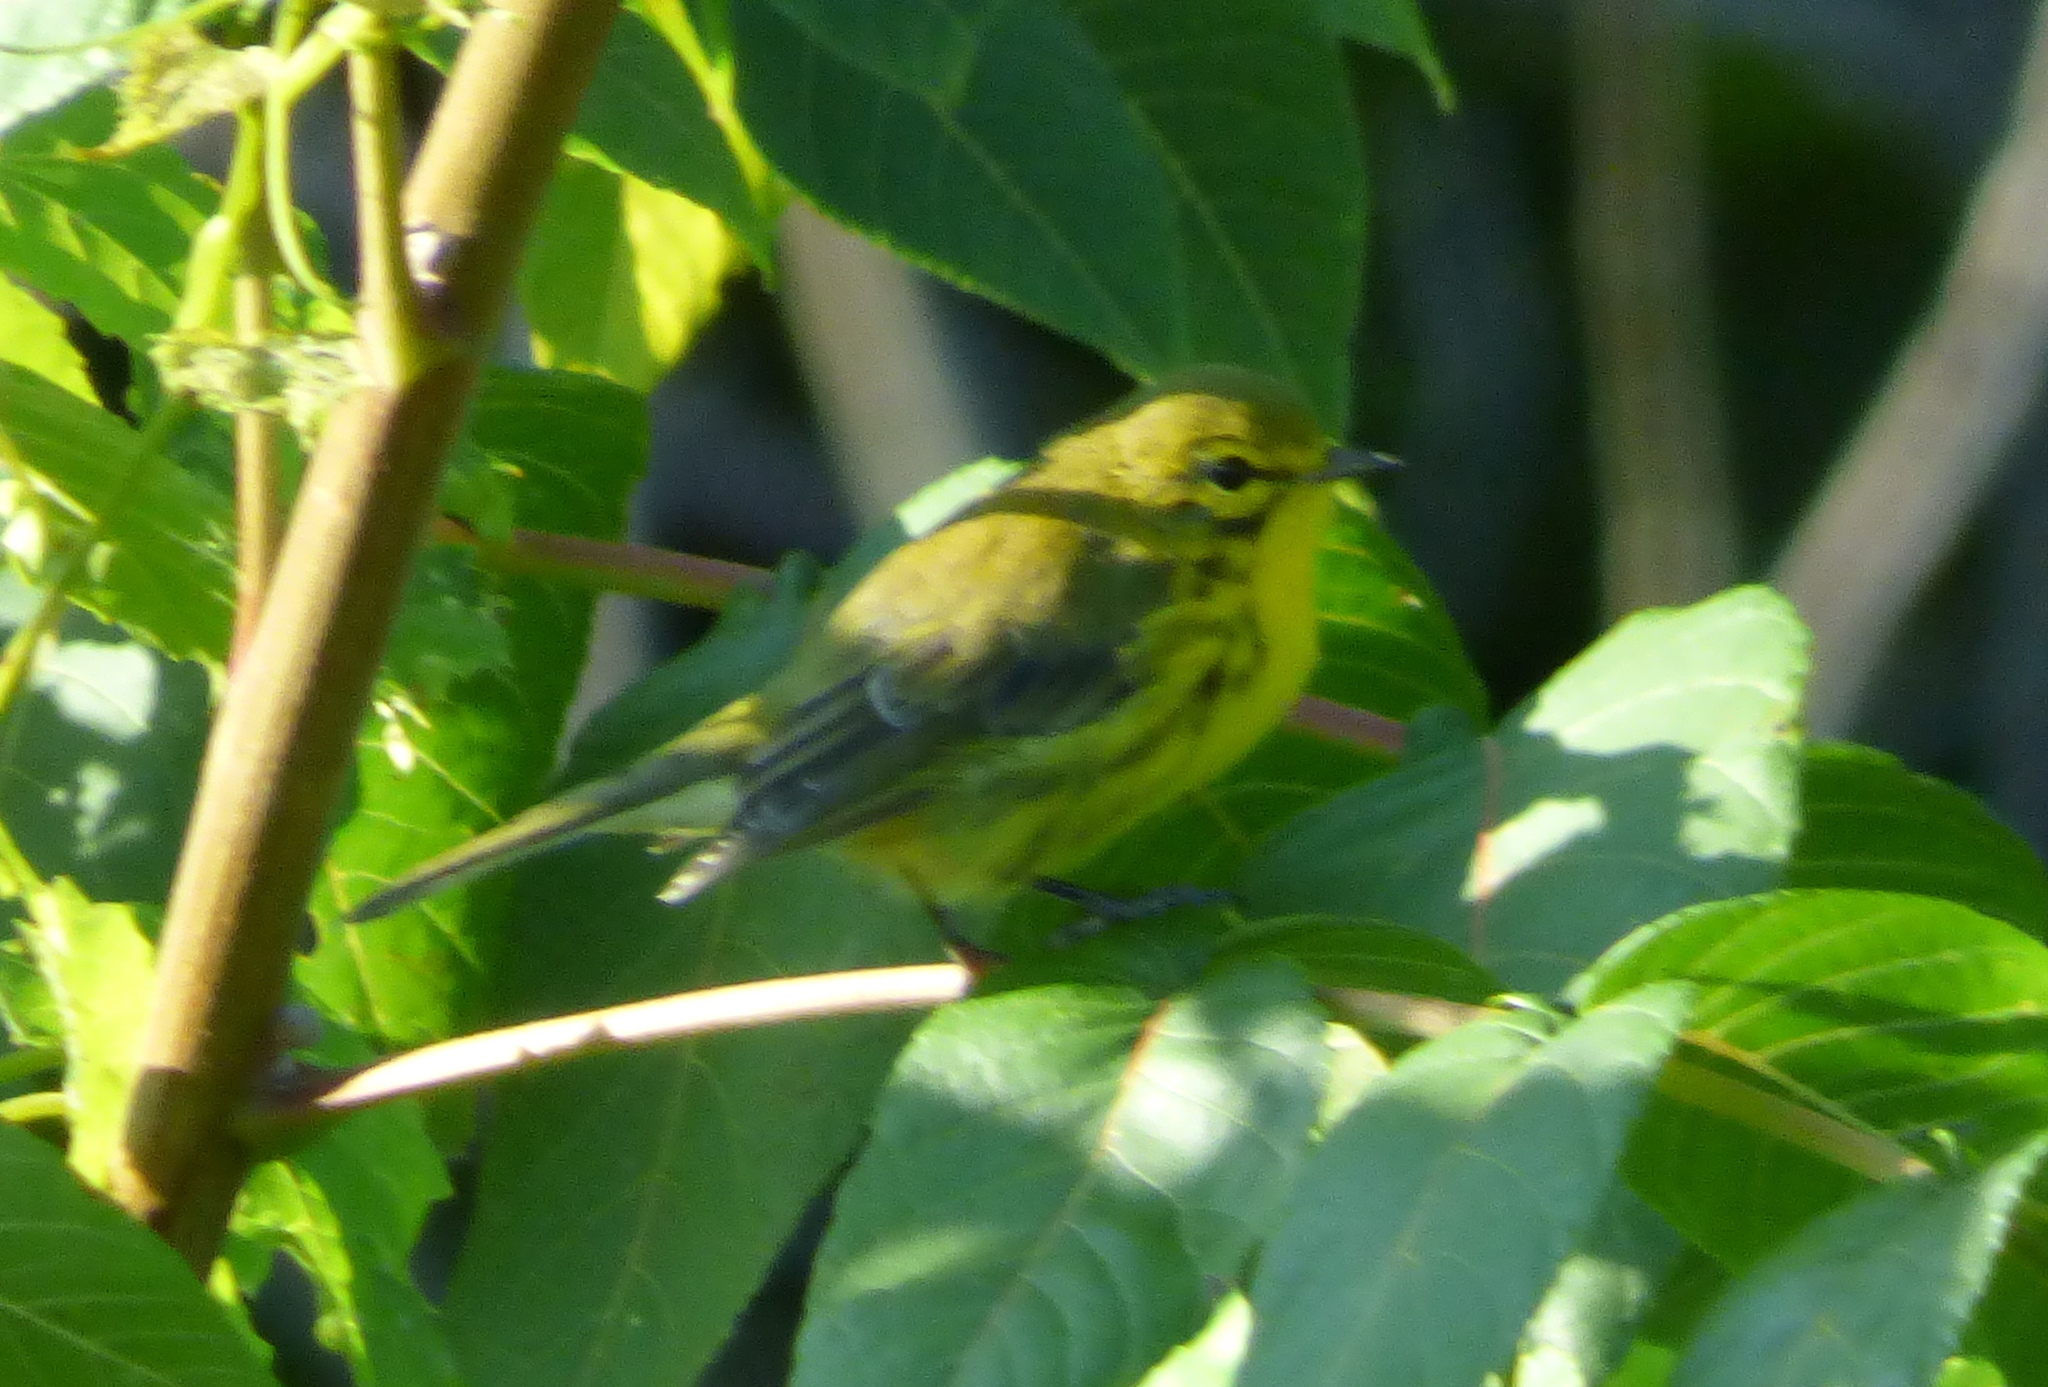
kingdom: Animalia
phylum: Chordata
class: Aves
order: Passeriformes
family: Parulidae
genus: Setophaga
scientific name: Setophaga discolor
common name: Prairie warbler
